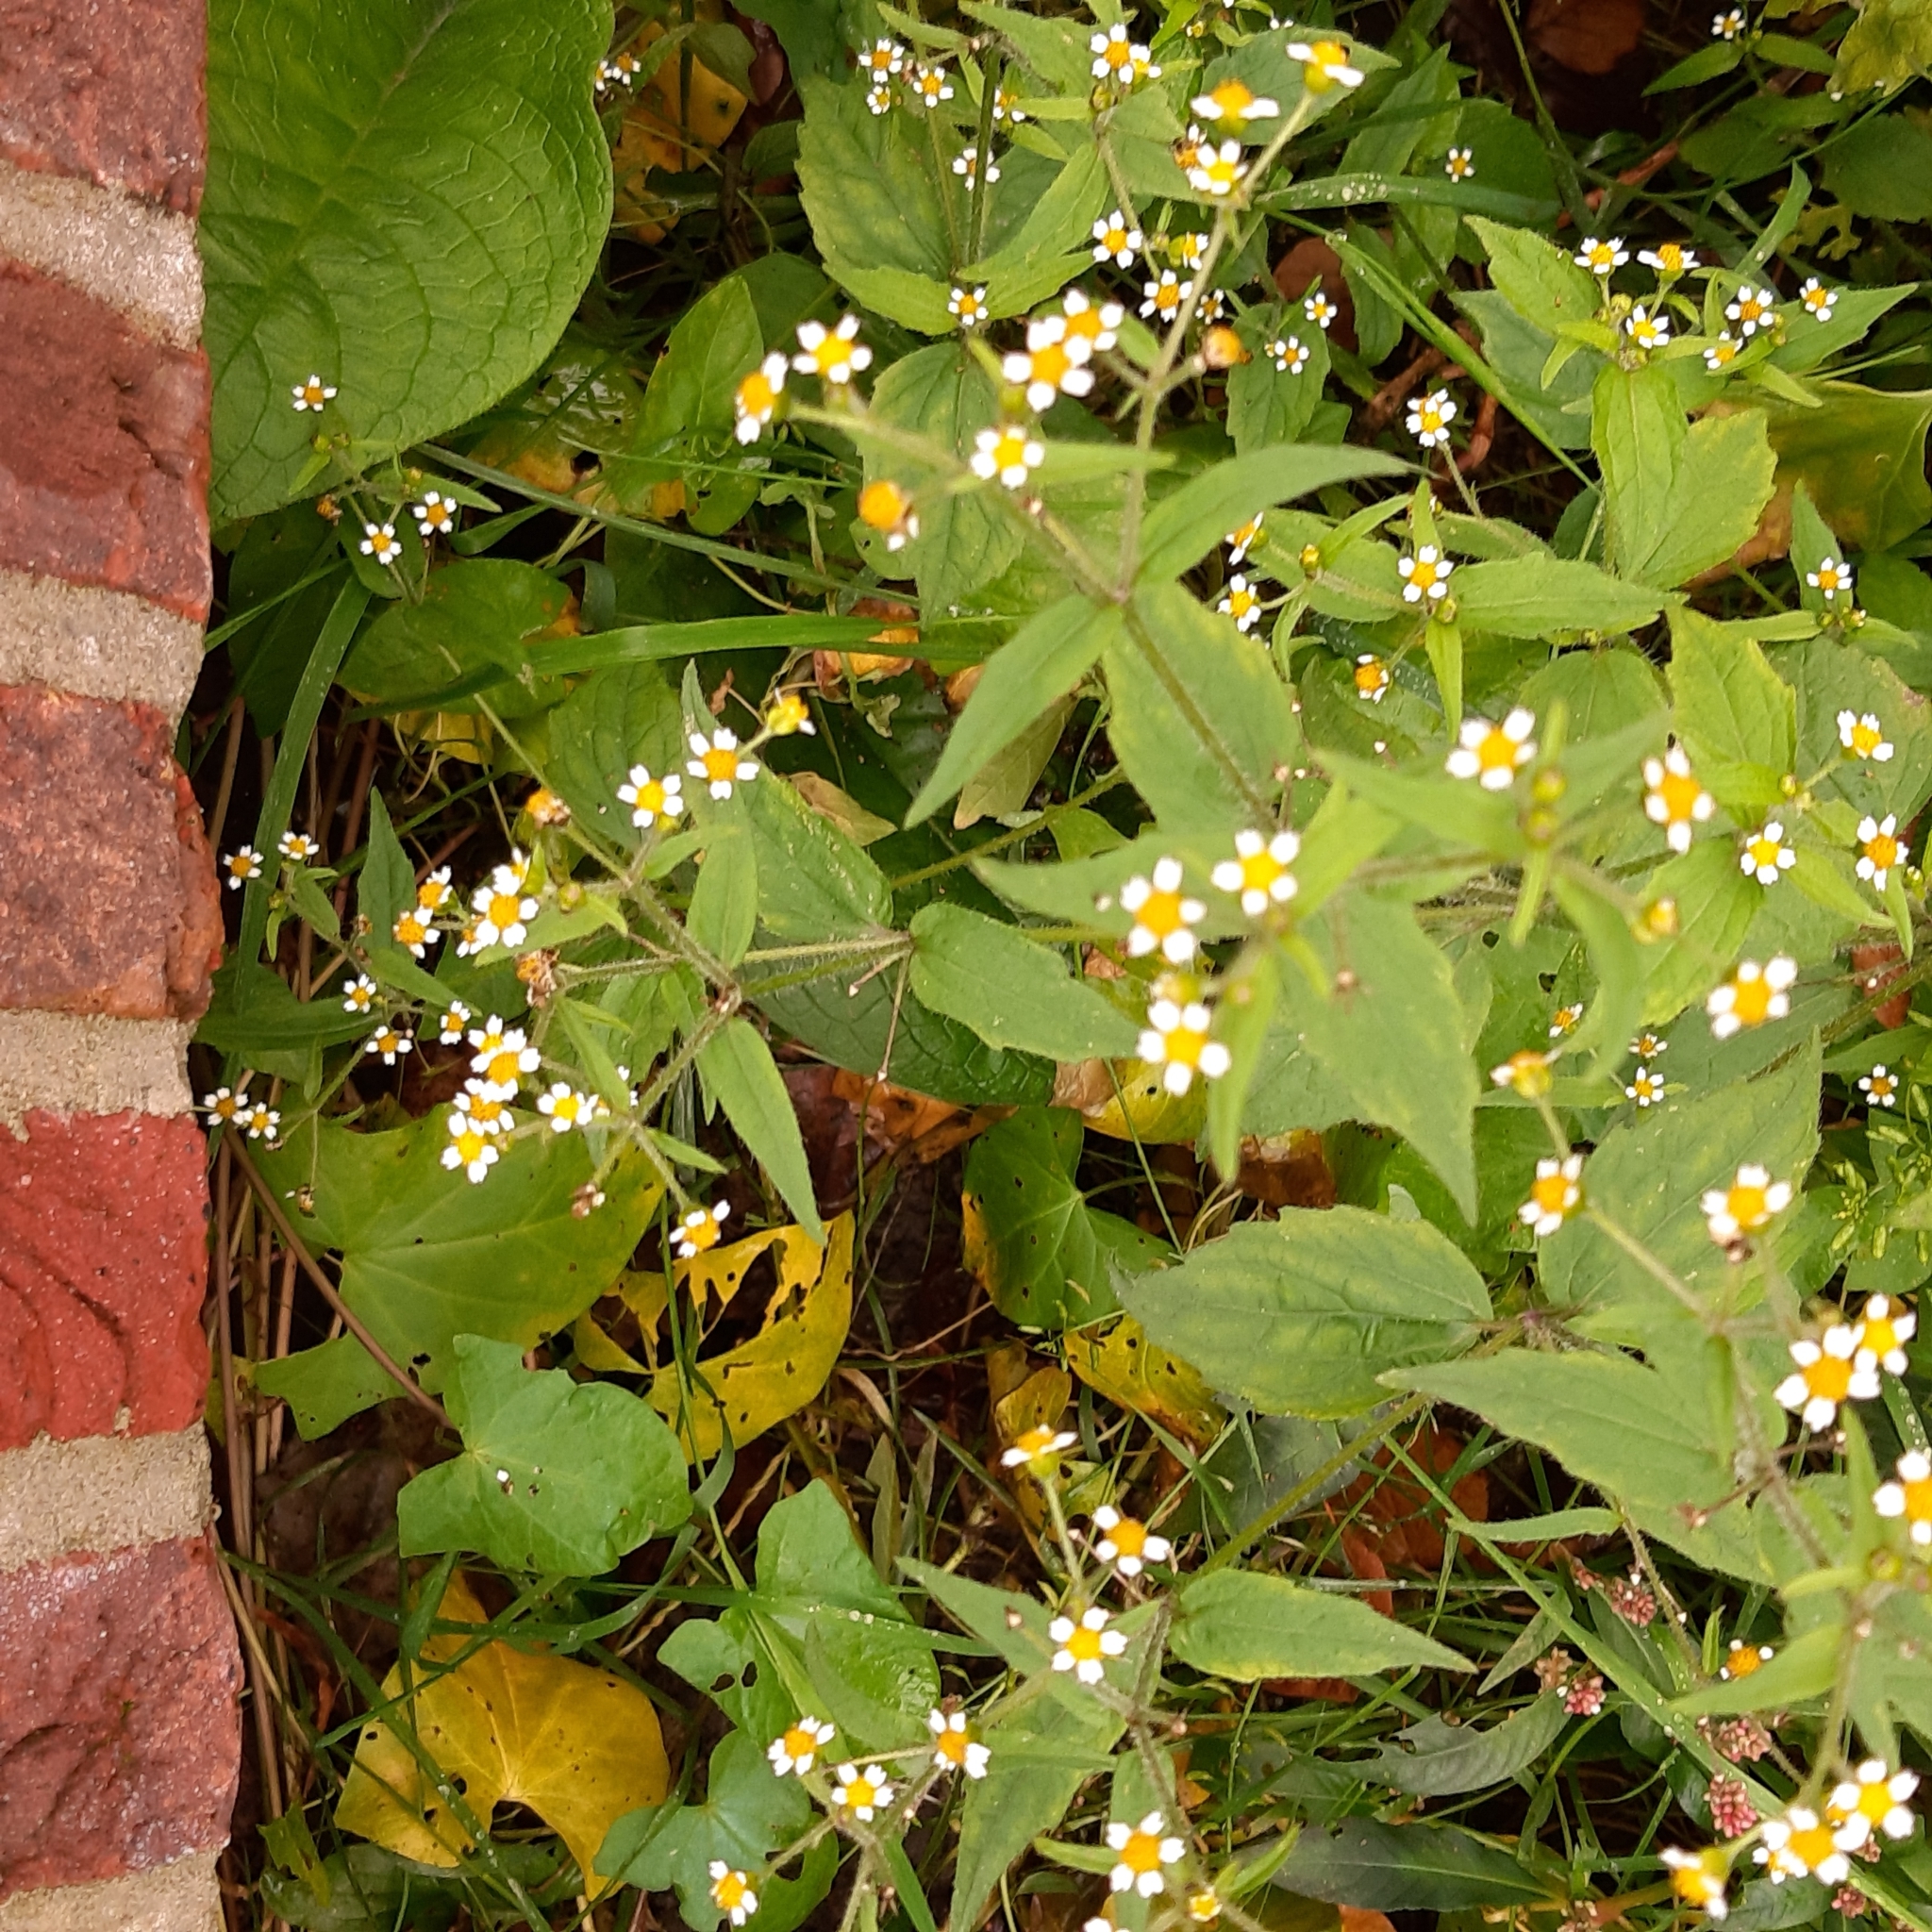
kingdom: Plantae
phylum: Tracheophyta
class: Magnoliopsida
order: Asterales
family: Asteraceae
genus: Galinsoga
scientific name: Galinsoga quadriradiata
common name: Shaggy soldier
